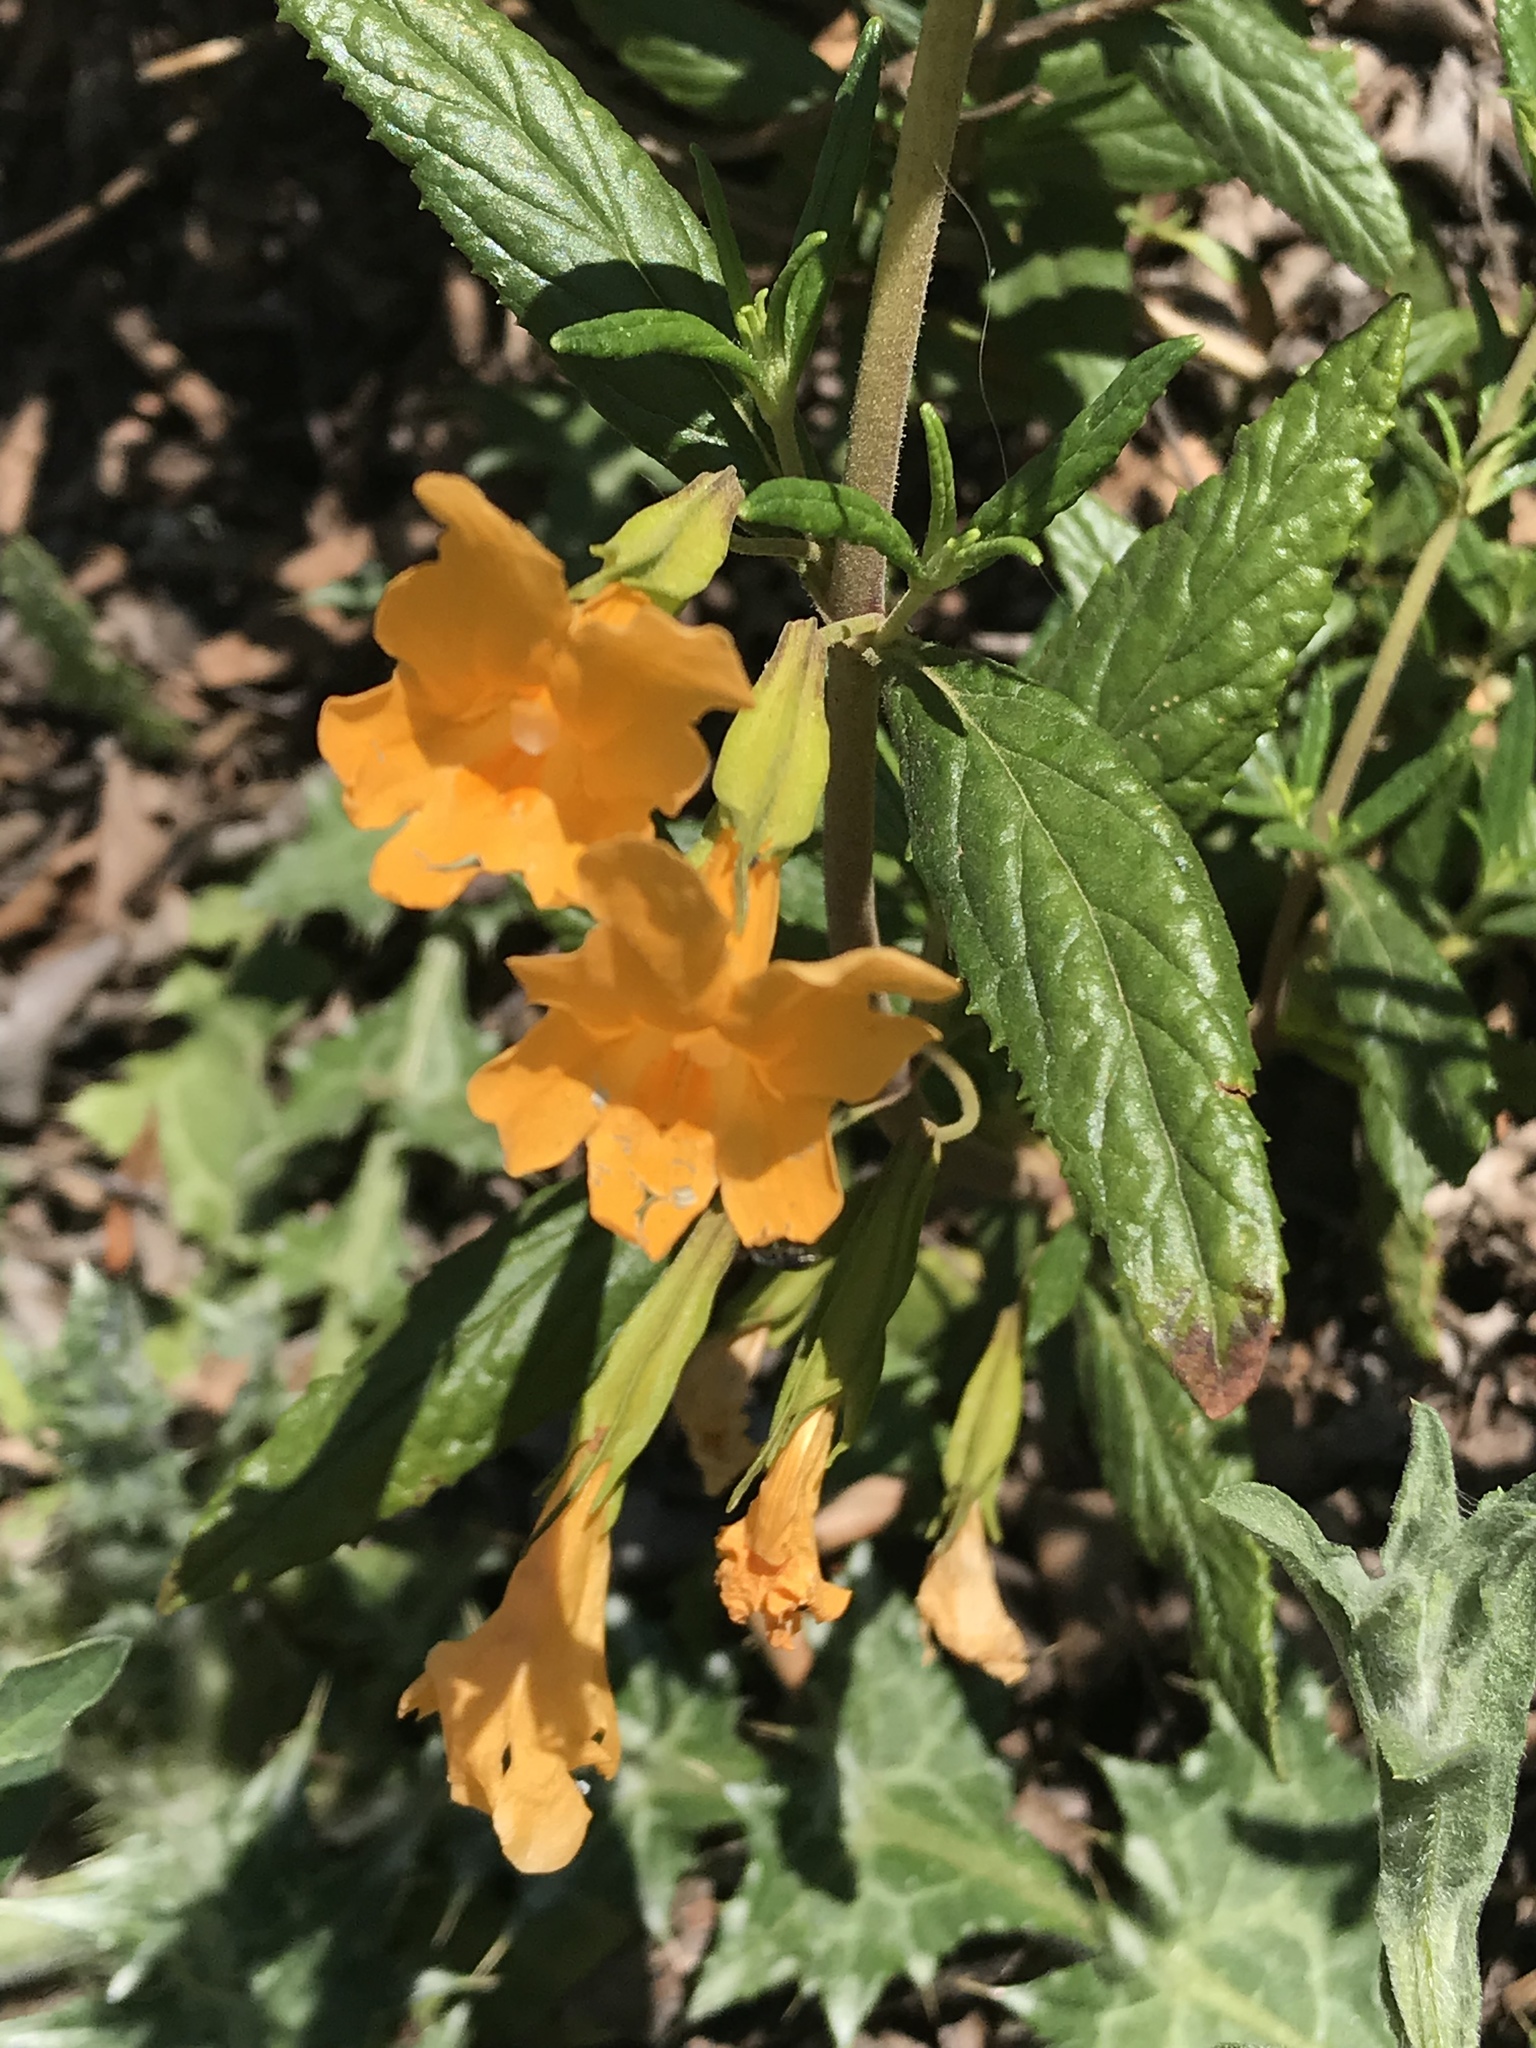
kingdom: Plantae
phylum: Tracheophyta
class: Magnoliopsida
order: Lamiales
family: Phrymaceae
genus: Diplacus
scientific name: Diplacus aurantiacus
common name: Bush monkey-flower
